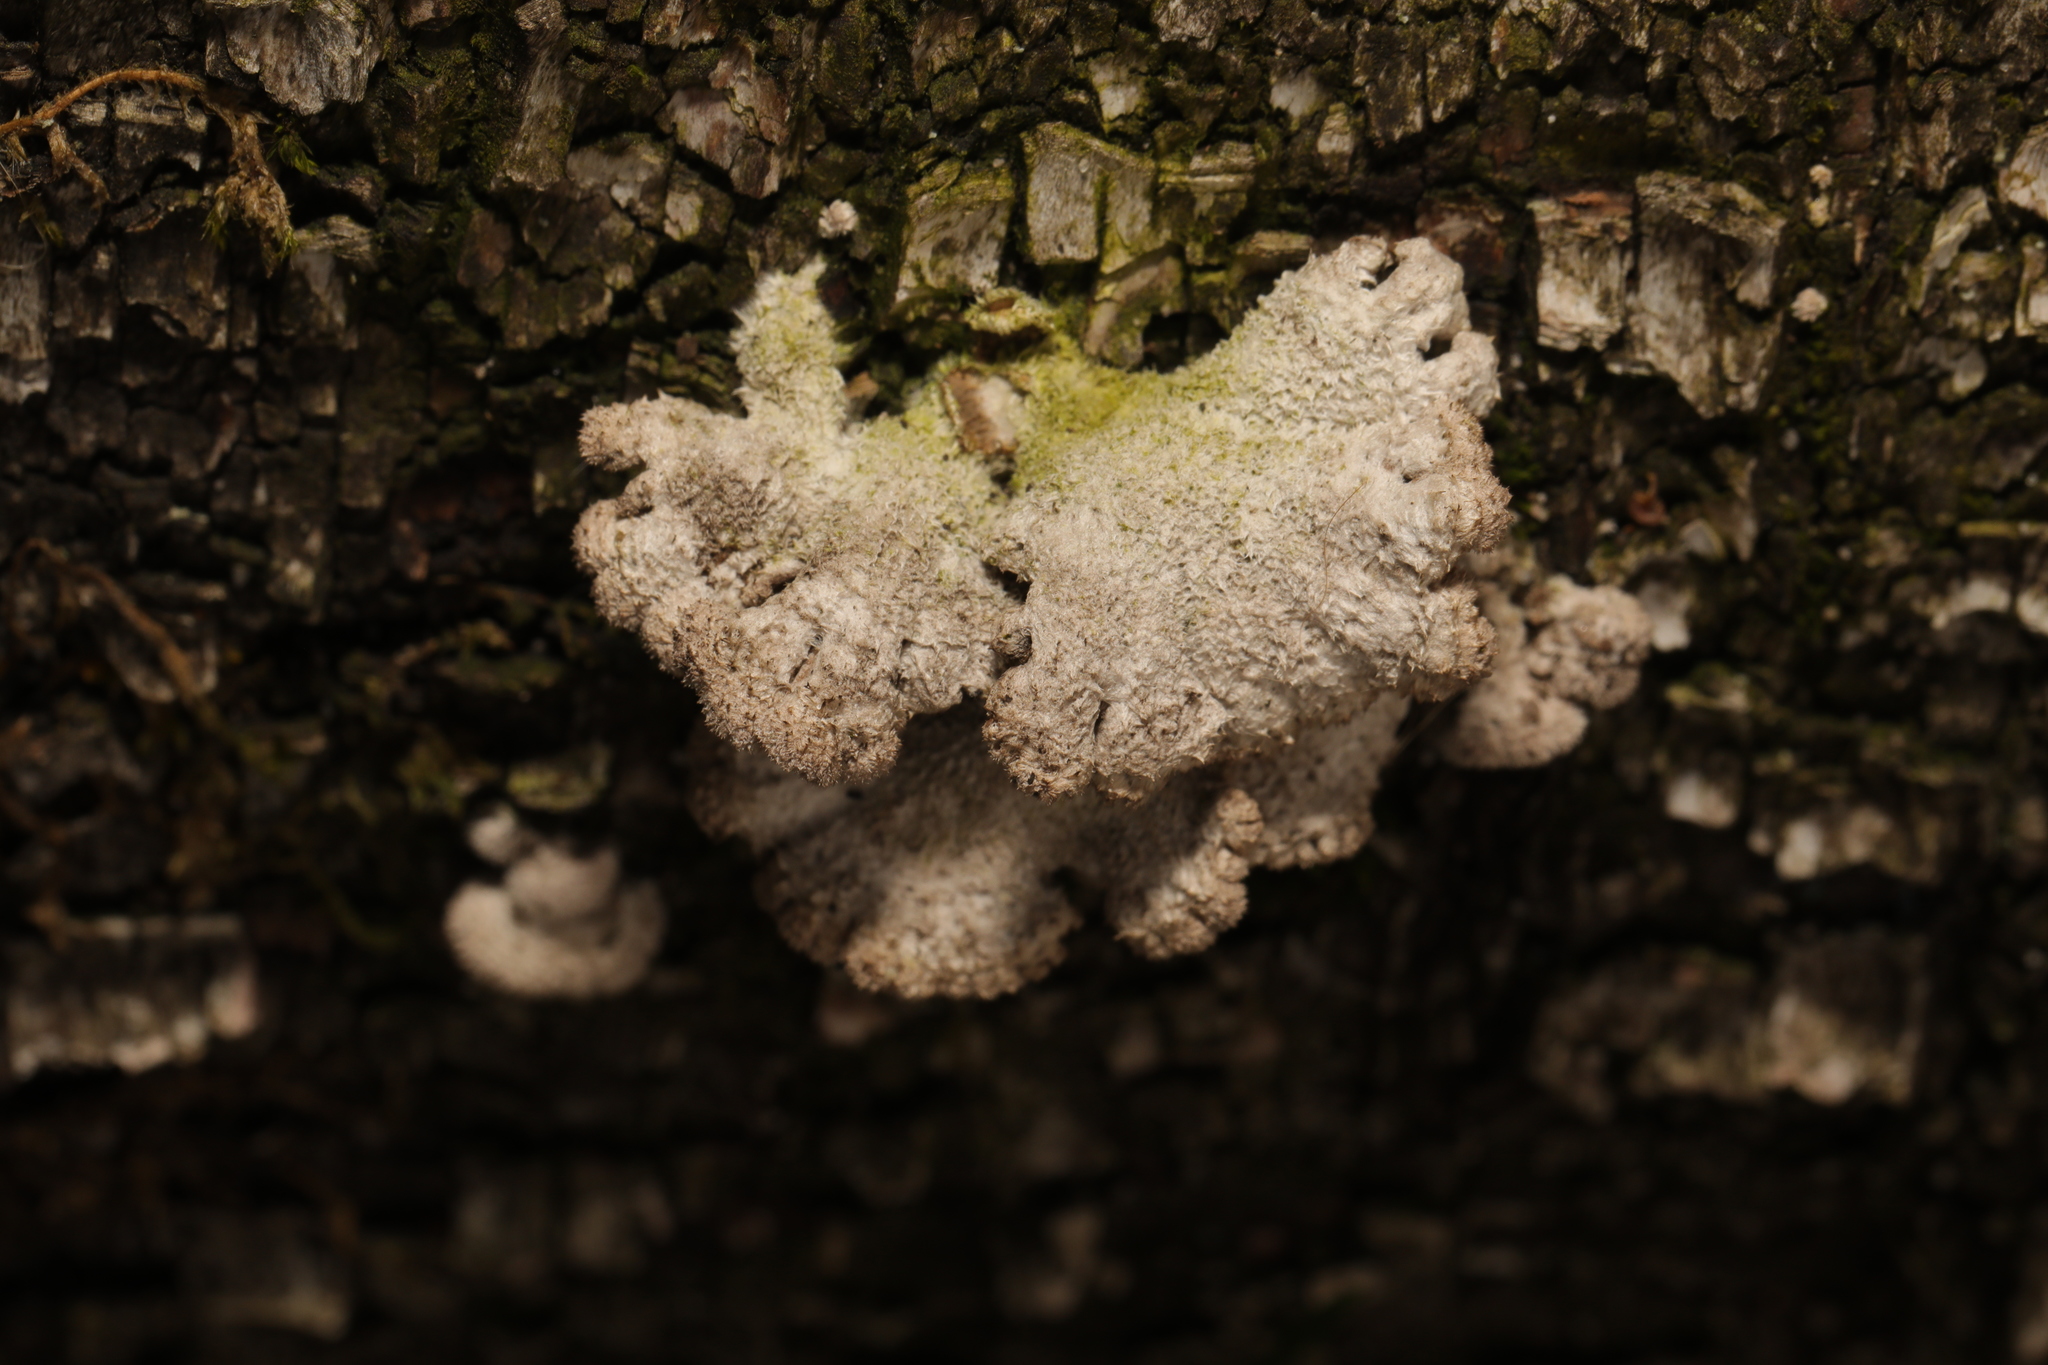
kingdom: Fungi
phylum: Basidiomycota
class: Agaricomycetes
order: Agaricales
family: Schizophyllaceae
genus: Schizophyllum
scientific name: Schizophyllum commune
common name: Common porecrust
